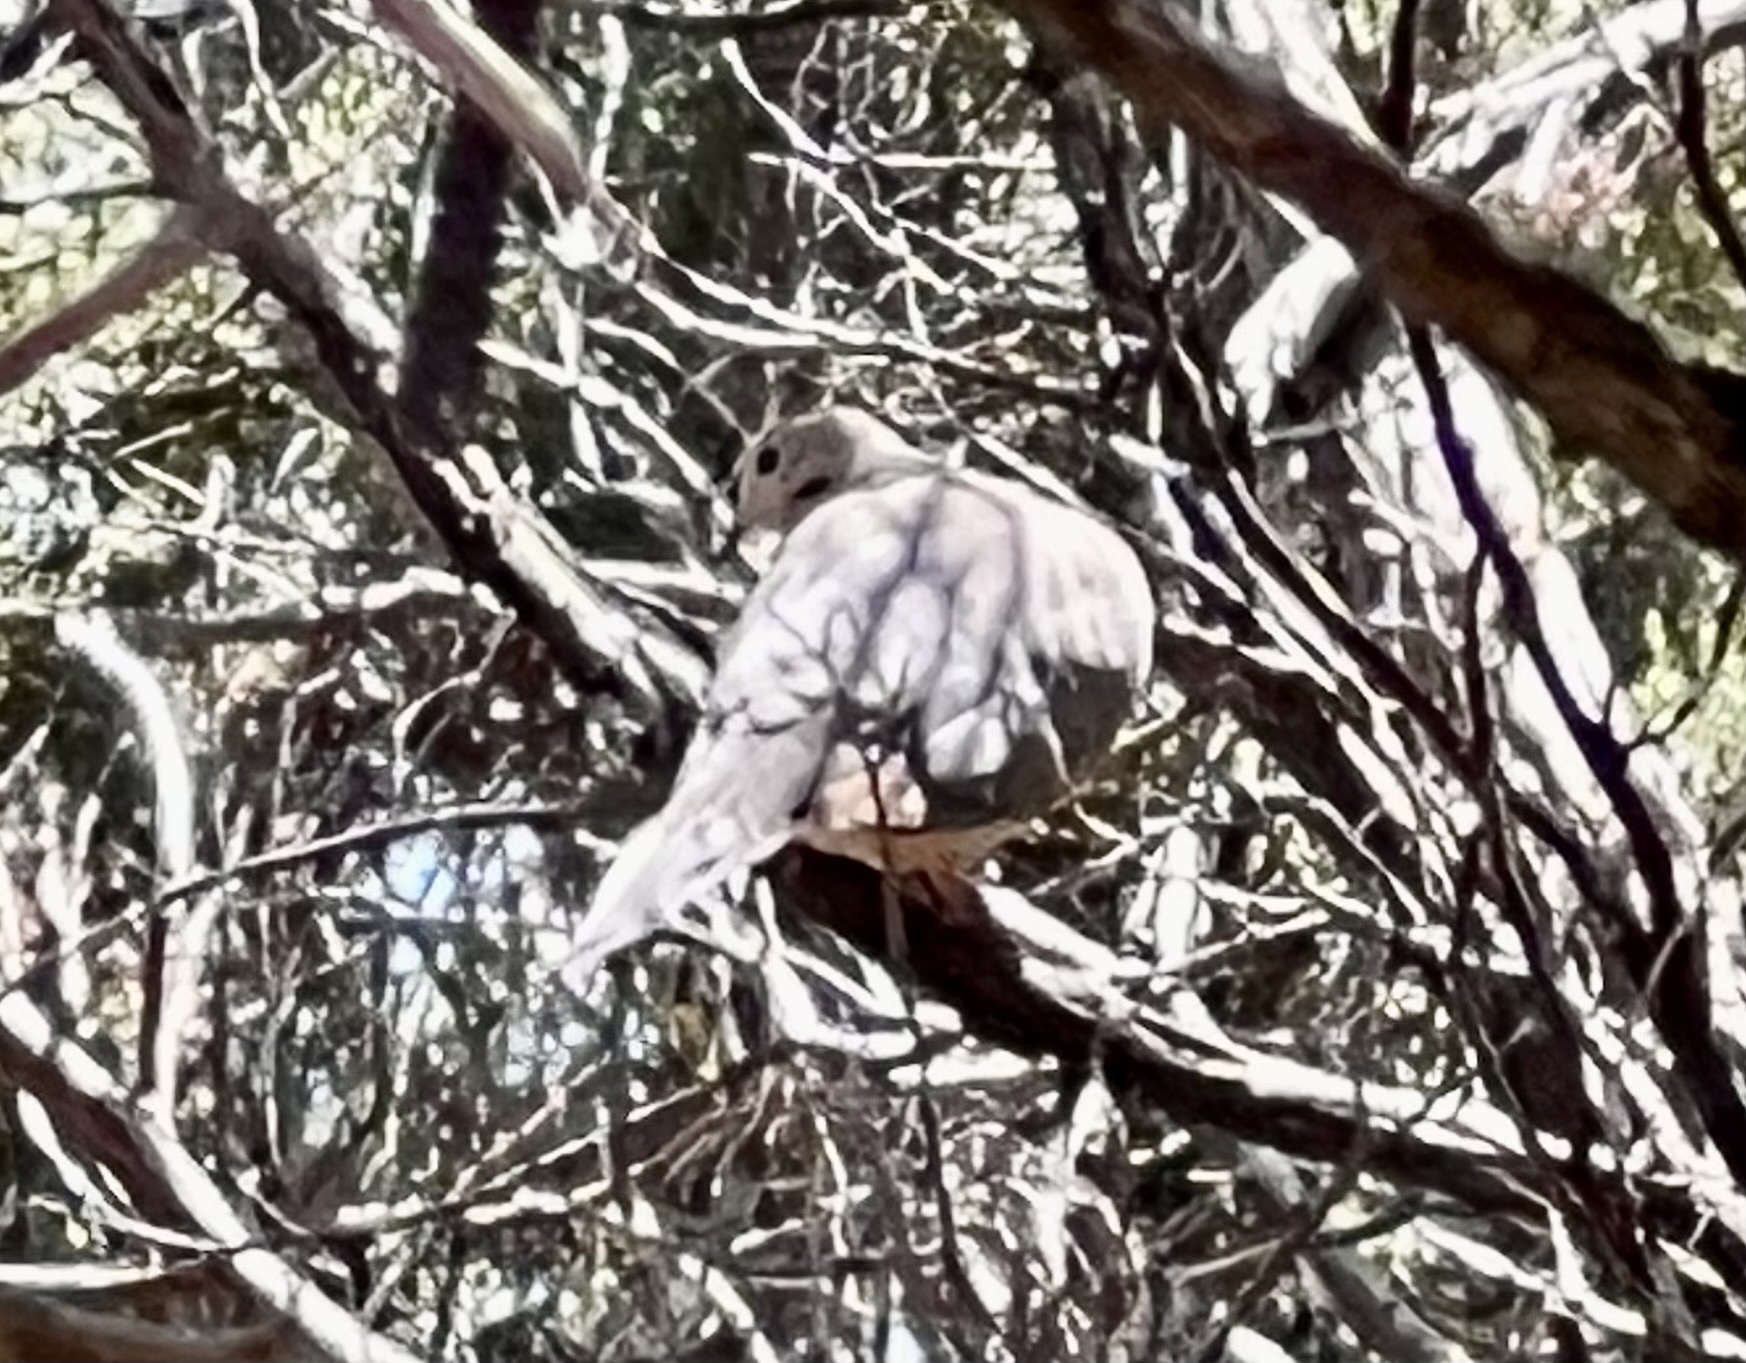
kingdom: Animalia
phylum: Chordata
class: Aves
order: Columbiformes
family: Columbidae
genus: Zenaida
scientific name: Zenaida macroura
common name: Mourning dove
